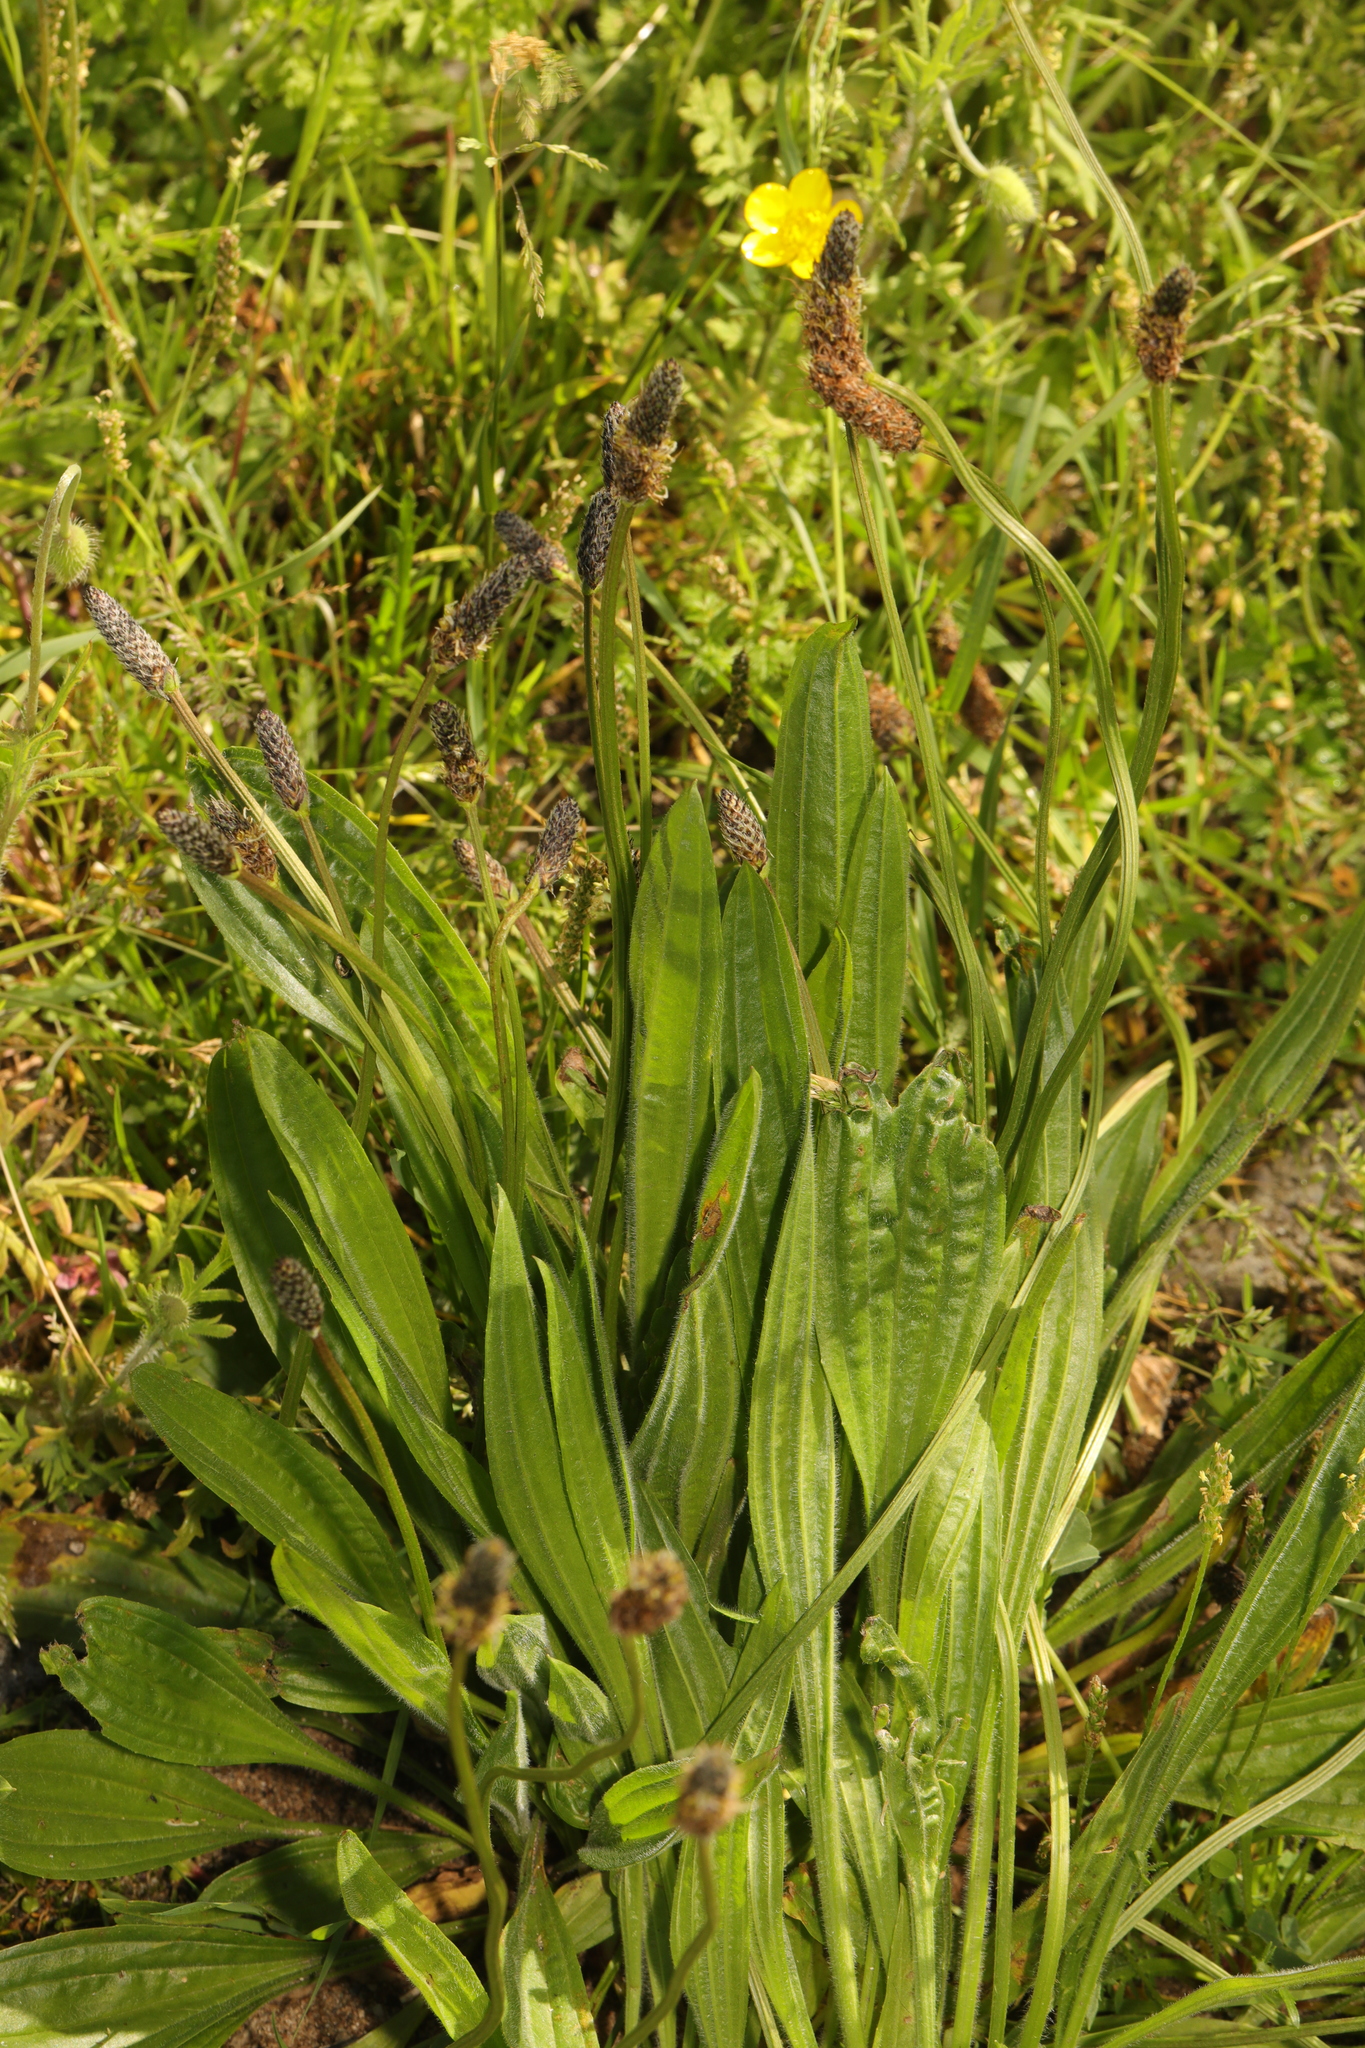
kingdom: Plantae
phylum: Tracheophyta
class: Magnoliopsida
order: Lamiales
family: Plantaginaceae
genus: Plantago
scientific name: Plantago lanceolata
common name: Ribwort plantain
